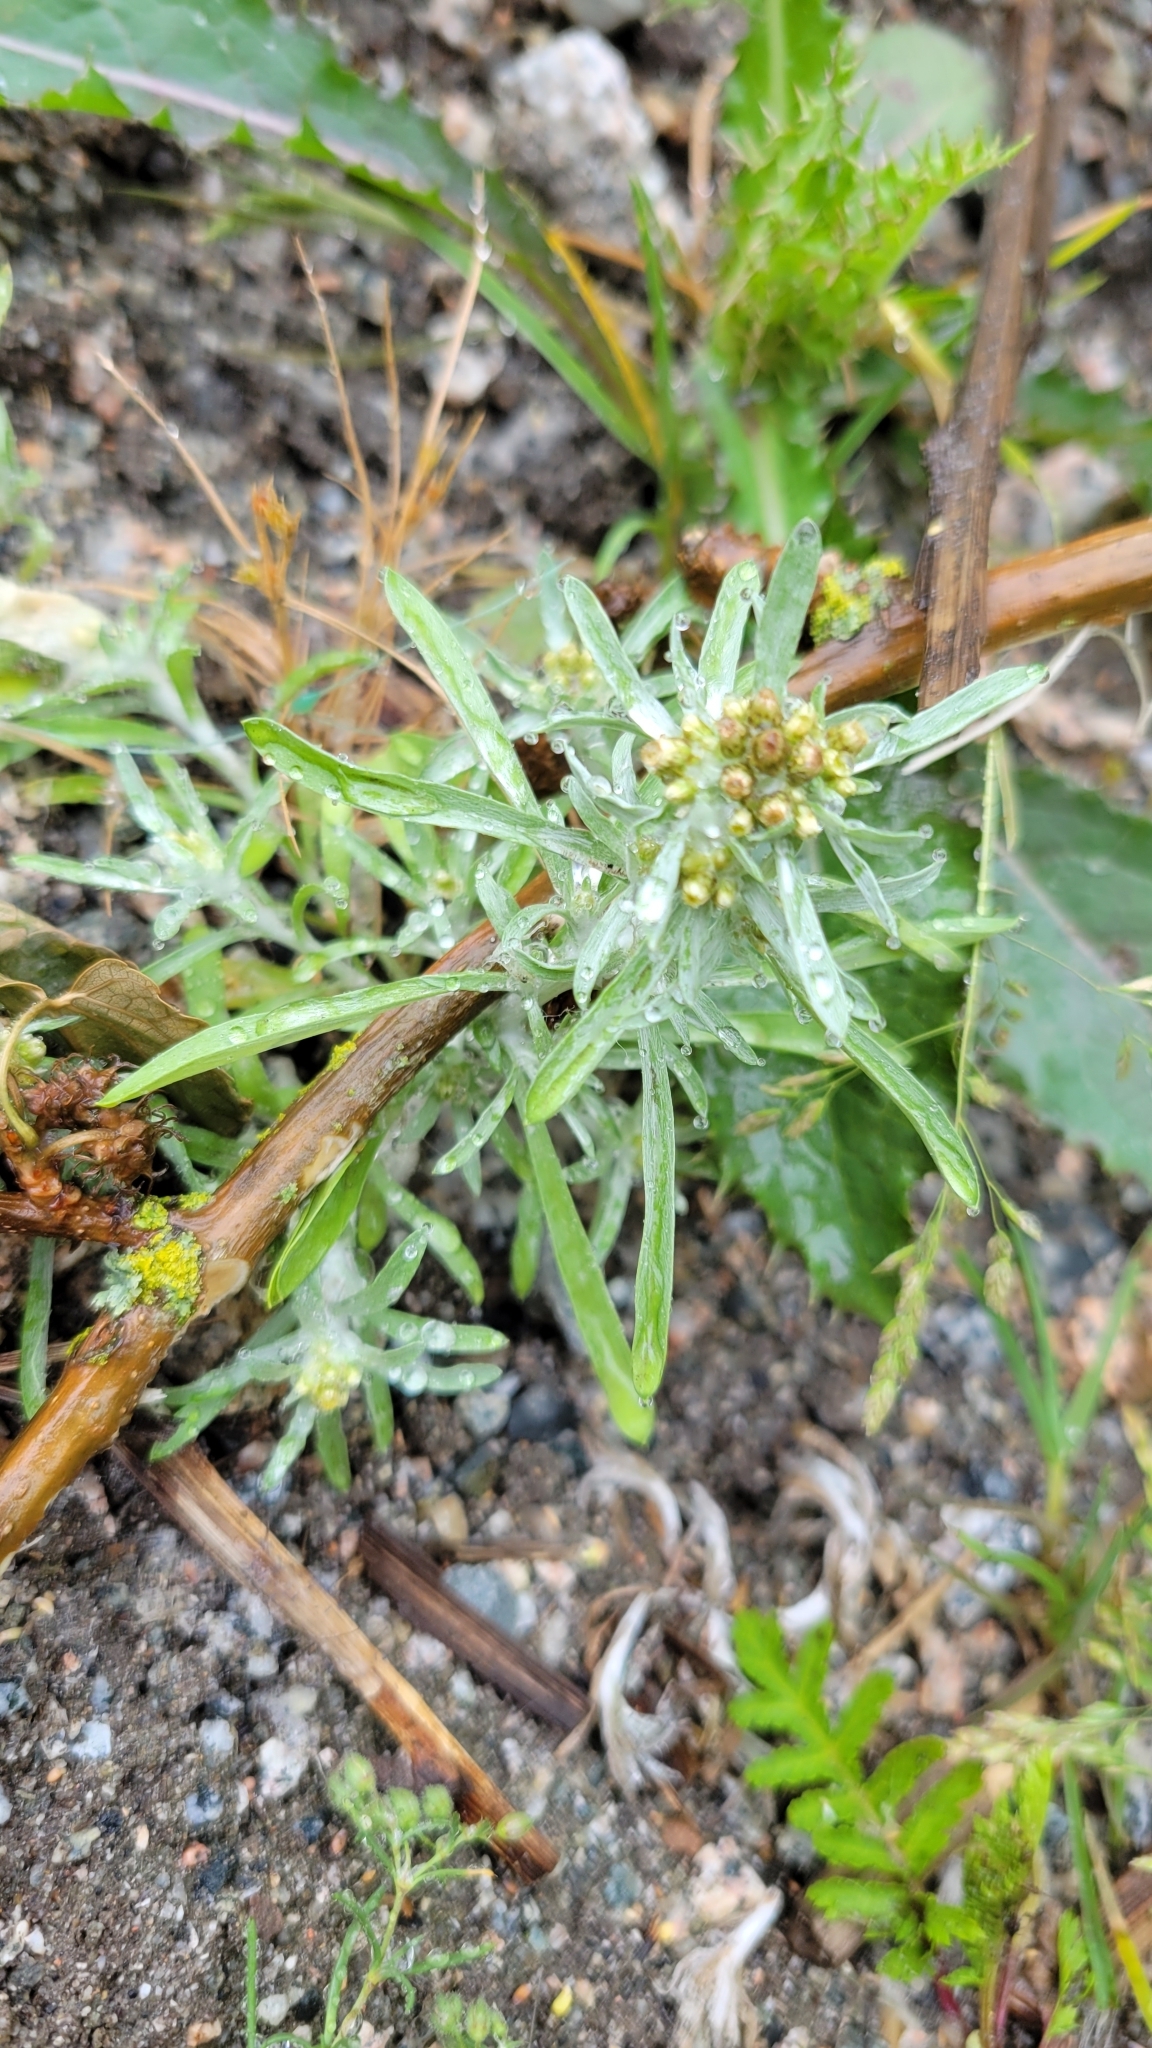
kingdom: Plantae
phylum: Tracheophyta
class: Magnoliopsida
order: Asterales
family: Asteraceae
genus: Gnaphalium
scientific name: Gnaphalium uliginosum
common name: Marsh cudweed
